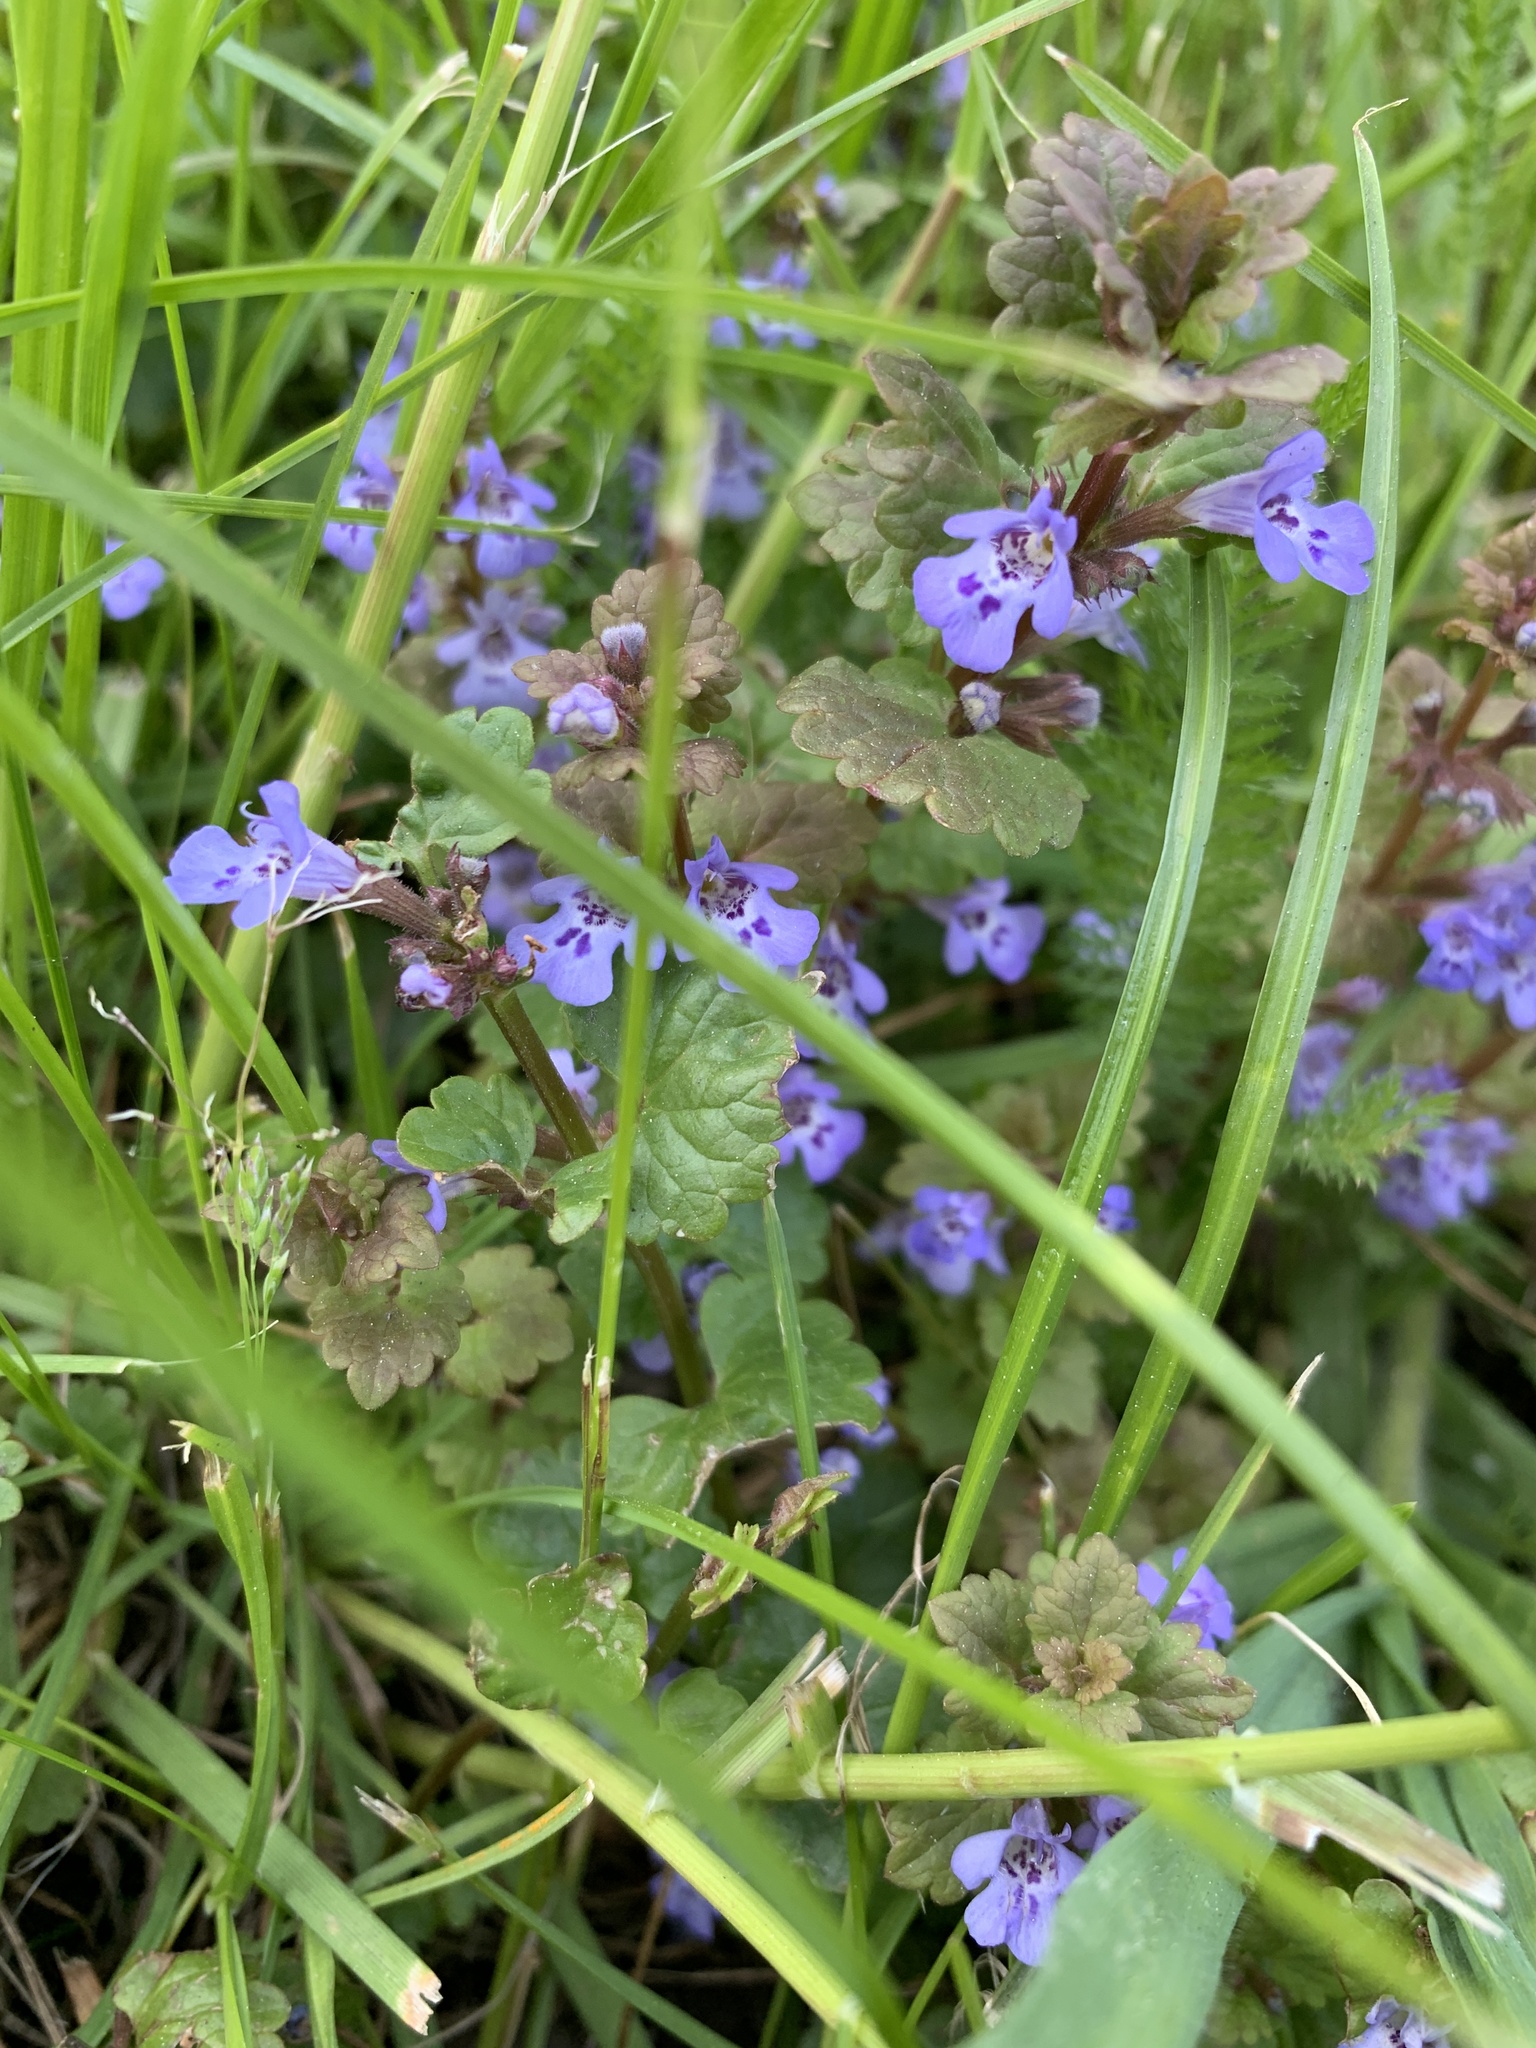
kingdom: Plantae
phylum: Tracheophyta
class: Magnoliopsida
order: Lamiales
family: Lamiaceae
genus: Glechoma
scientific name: Glechoma hederacea
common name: Ground ivy
